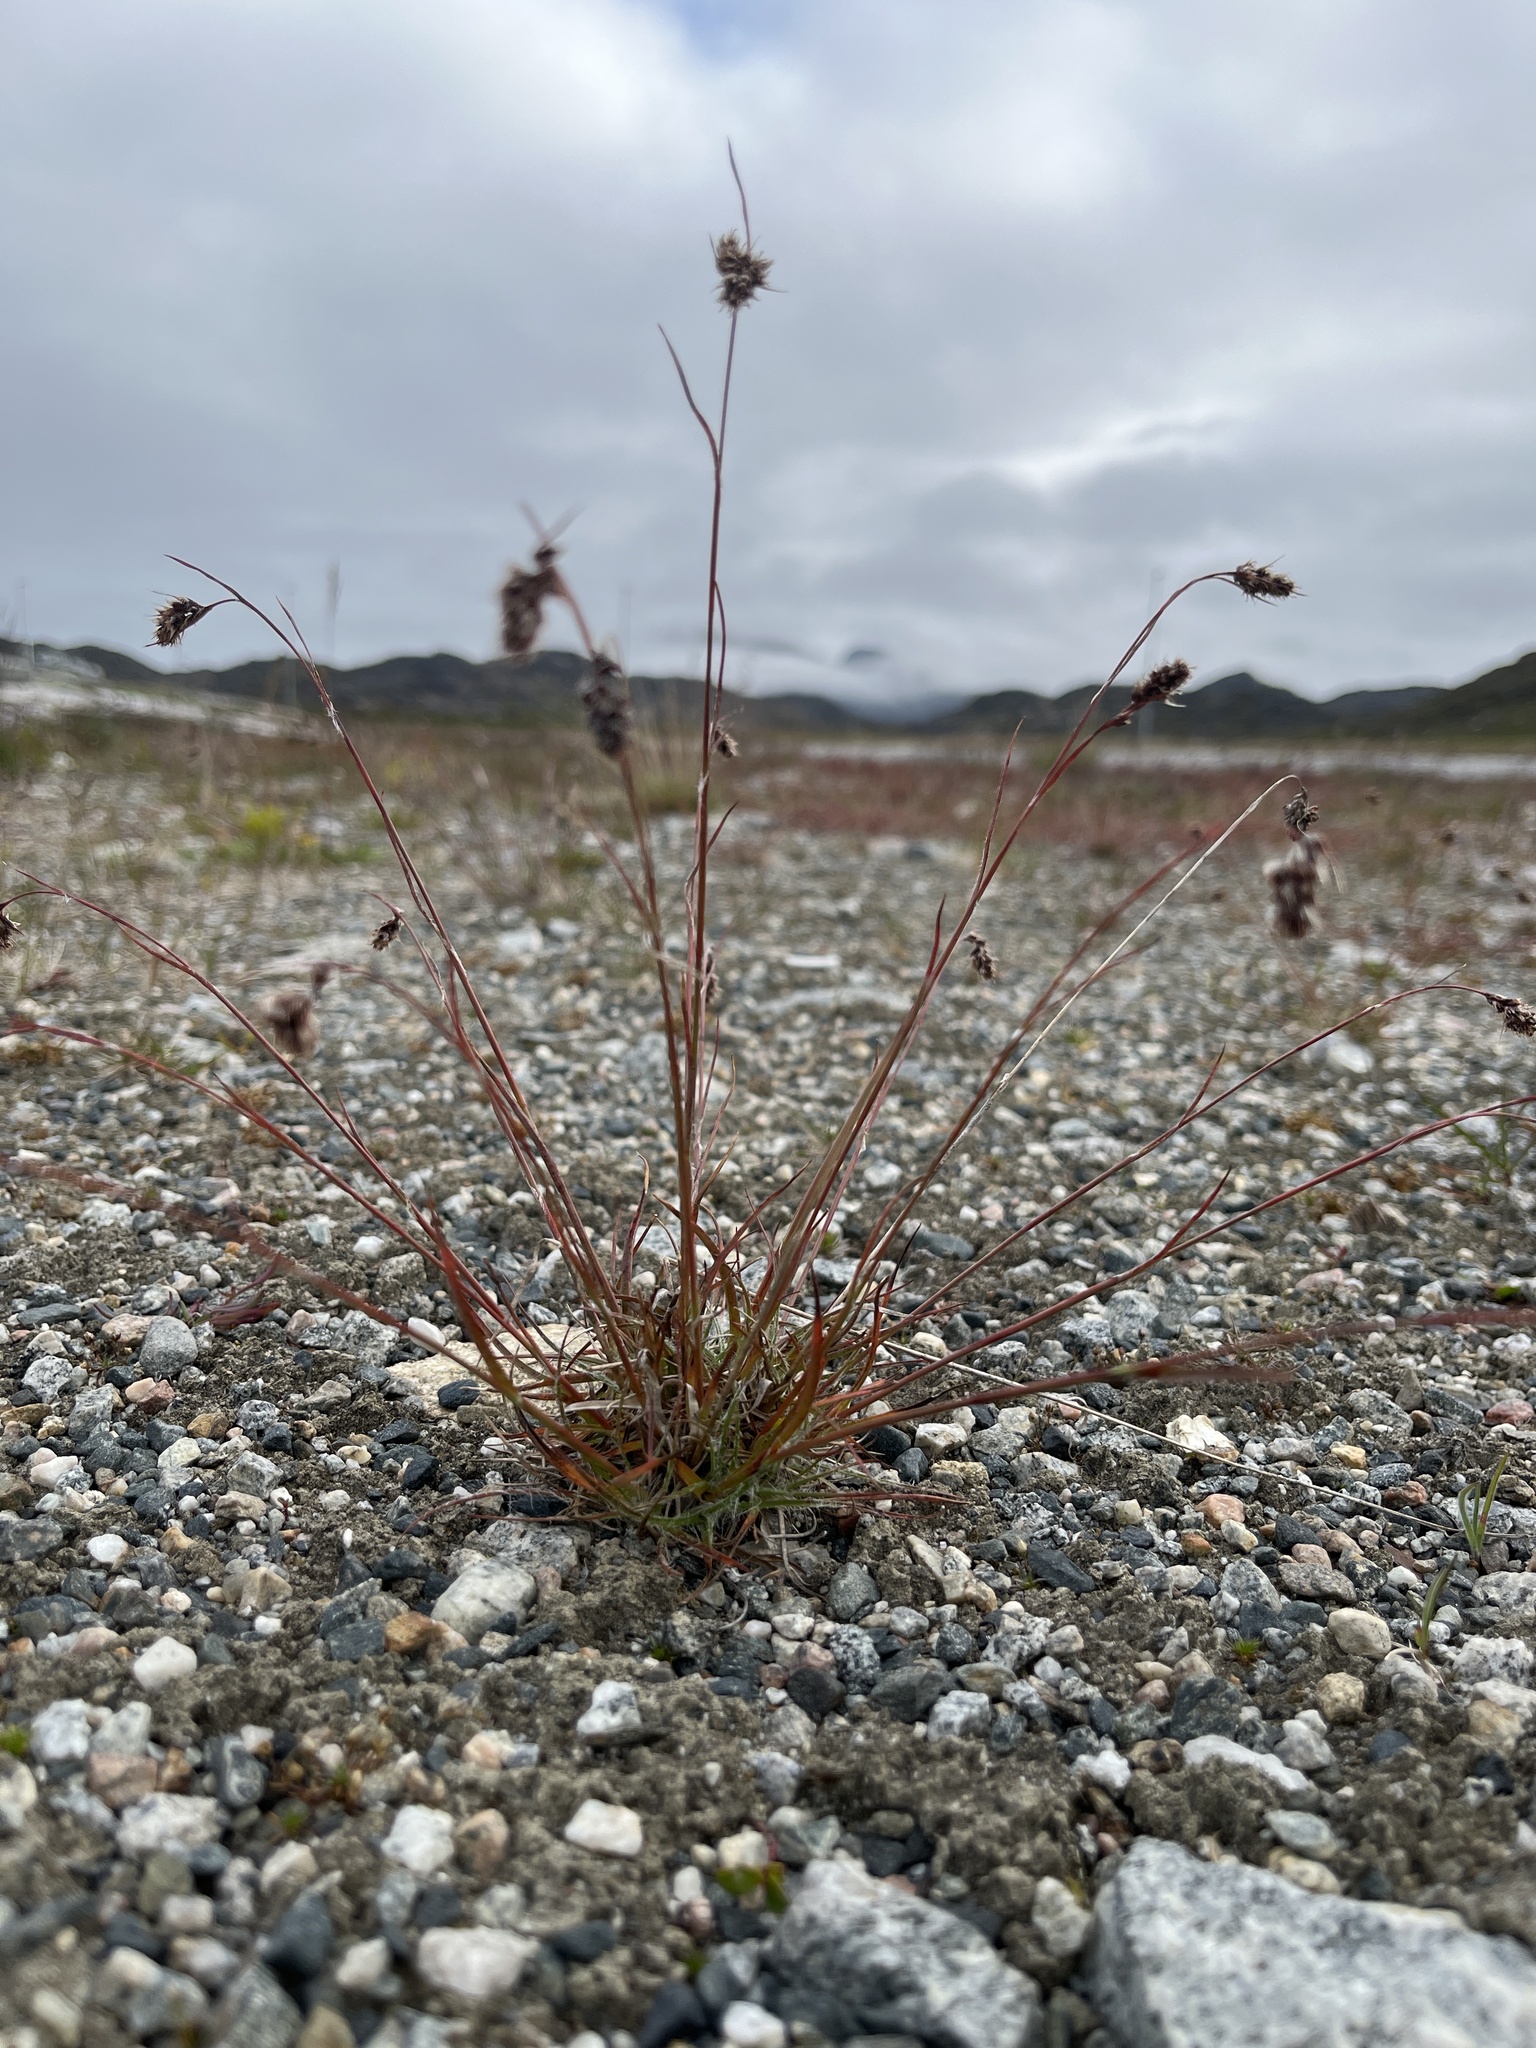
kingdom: Plantae
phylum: Tracheophyta
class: Liliopsida
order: Poales
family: Juncaceae
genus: Luzula
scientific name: Luzula spicata
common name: Spiked wood-rush
